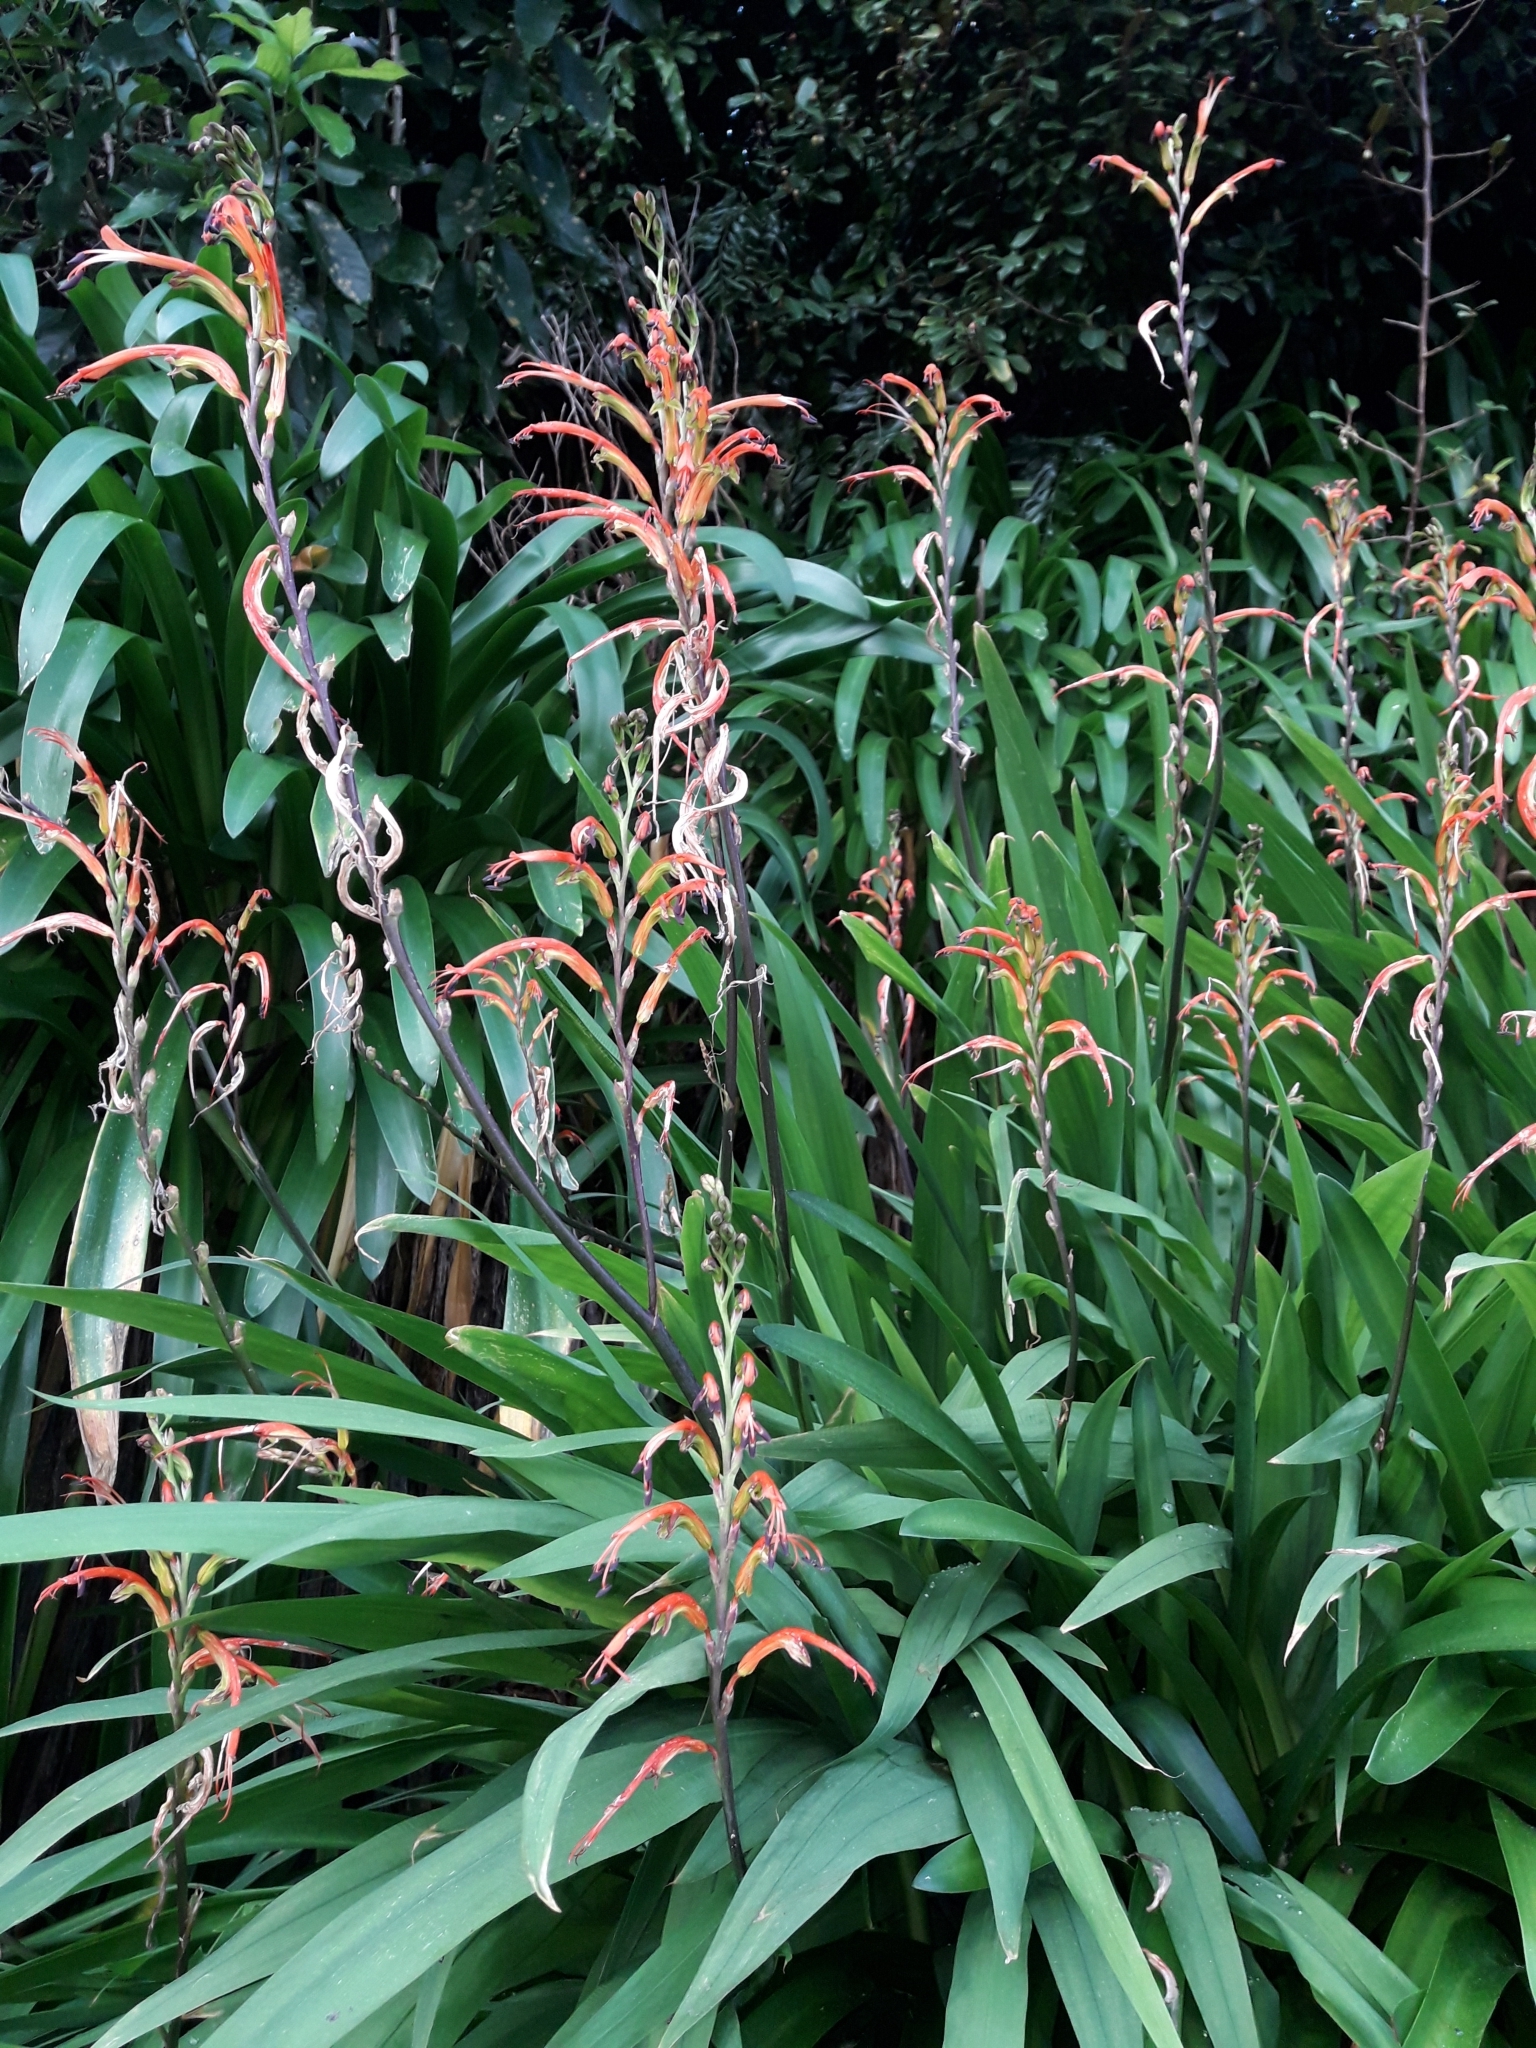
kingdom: Plantae
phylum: Tracheophyta
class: Liliopsida
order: Asparagales
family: Iridaceae
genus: Chasmanthe
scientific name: Chasmanthe bicolor
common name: Bicolor cobra lily
